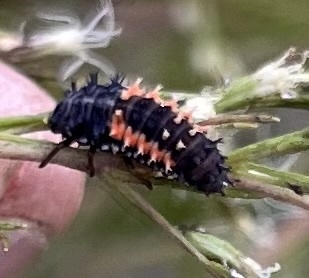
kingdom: Animalia
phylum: Arthropoda
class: Insecta
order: Coleoptera
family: Coccinellidae
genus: Harmonia
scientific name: Harmonia axyridis
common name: Harlequin ladybird
